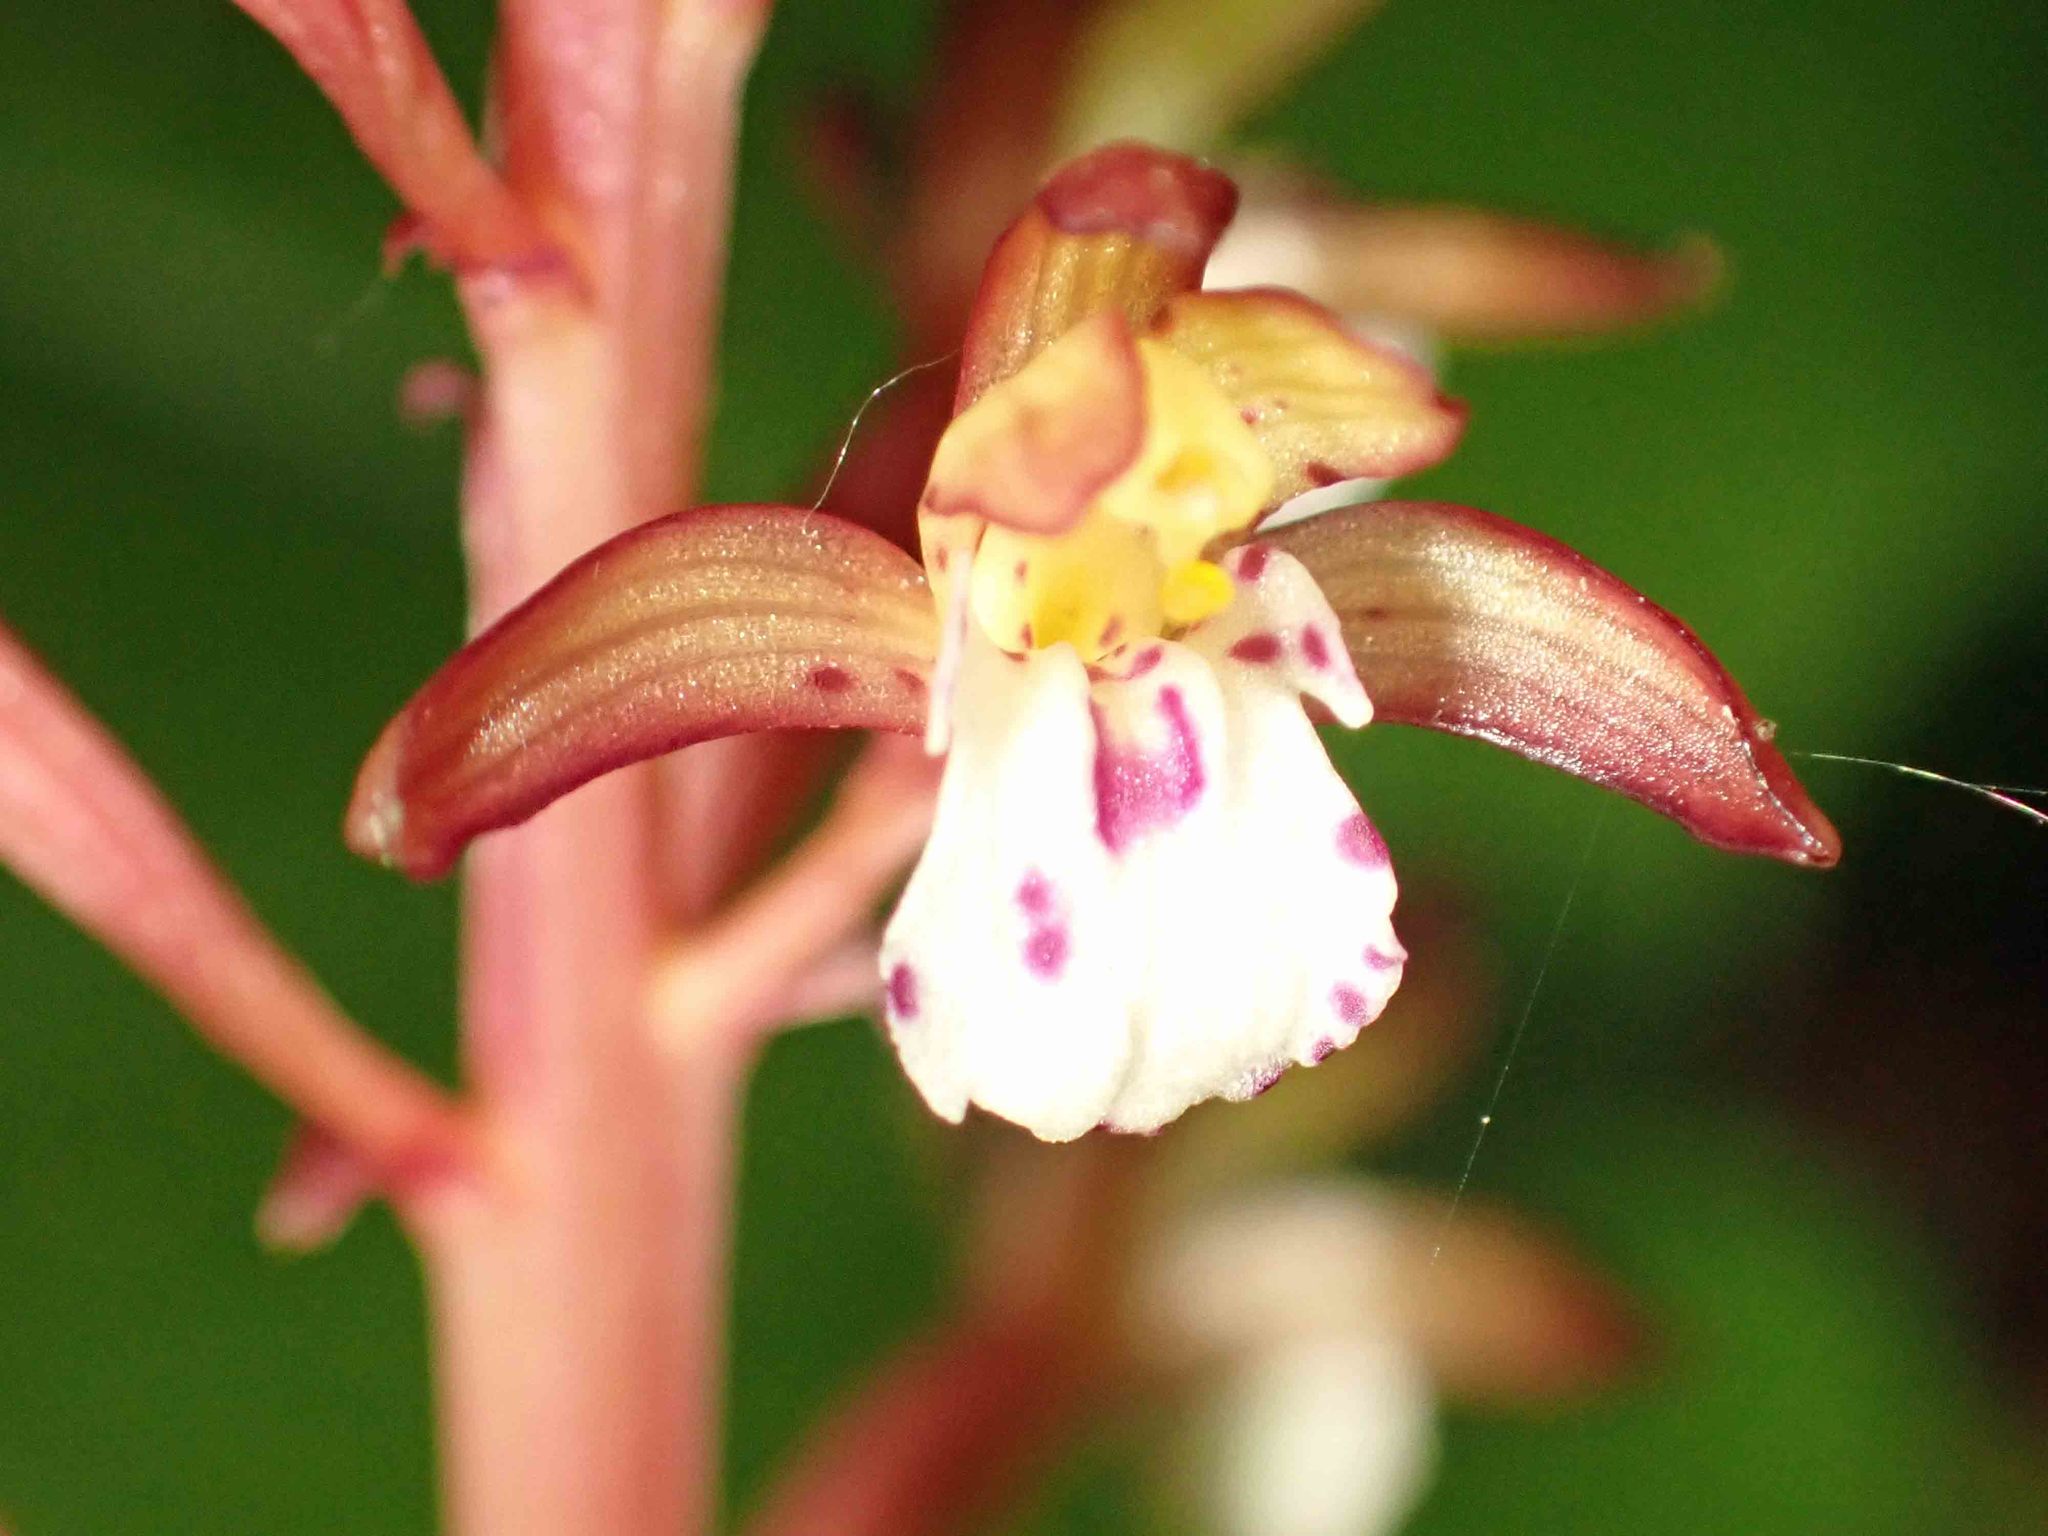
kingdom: Plantae
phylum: Tracheophyta
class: Liliopsida
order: Asparagales
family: Orchidaceae
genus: Corallorhiza
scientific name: Corallorhiza maculata
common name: Spotted coralroot
